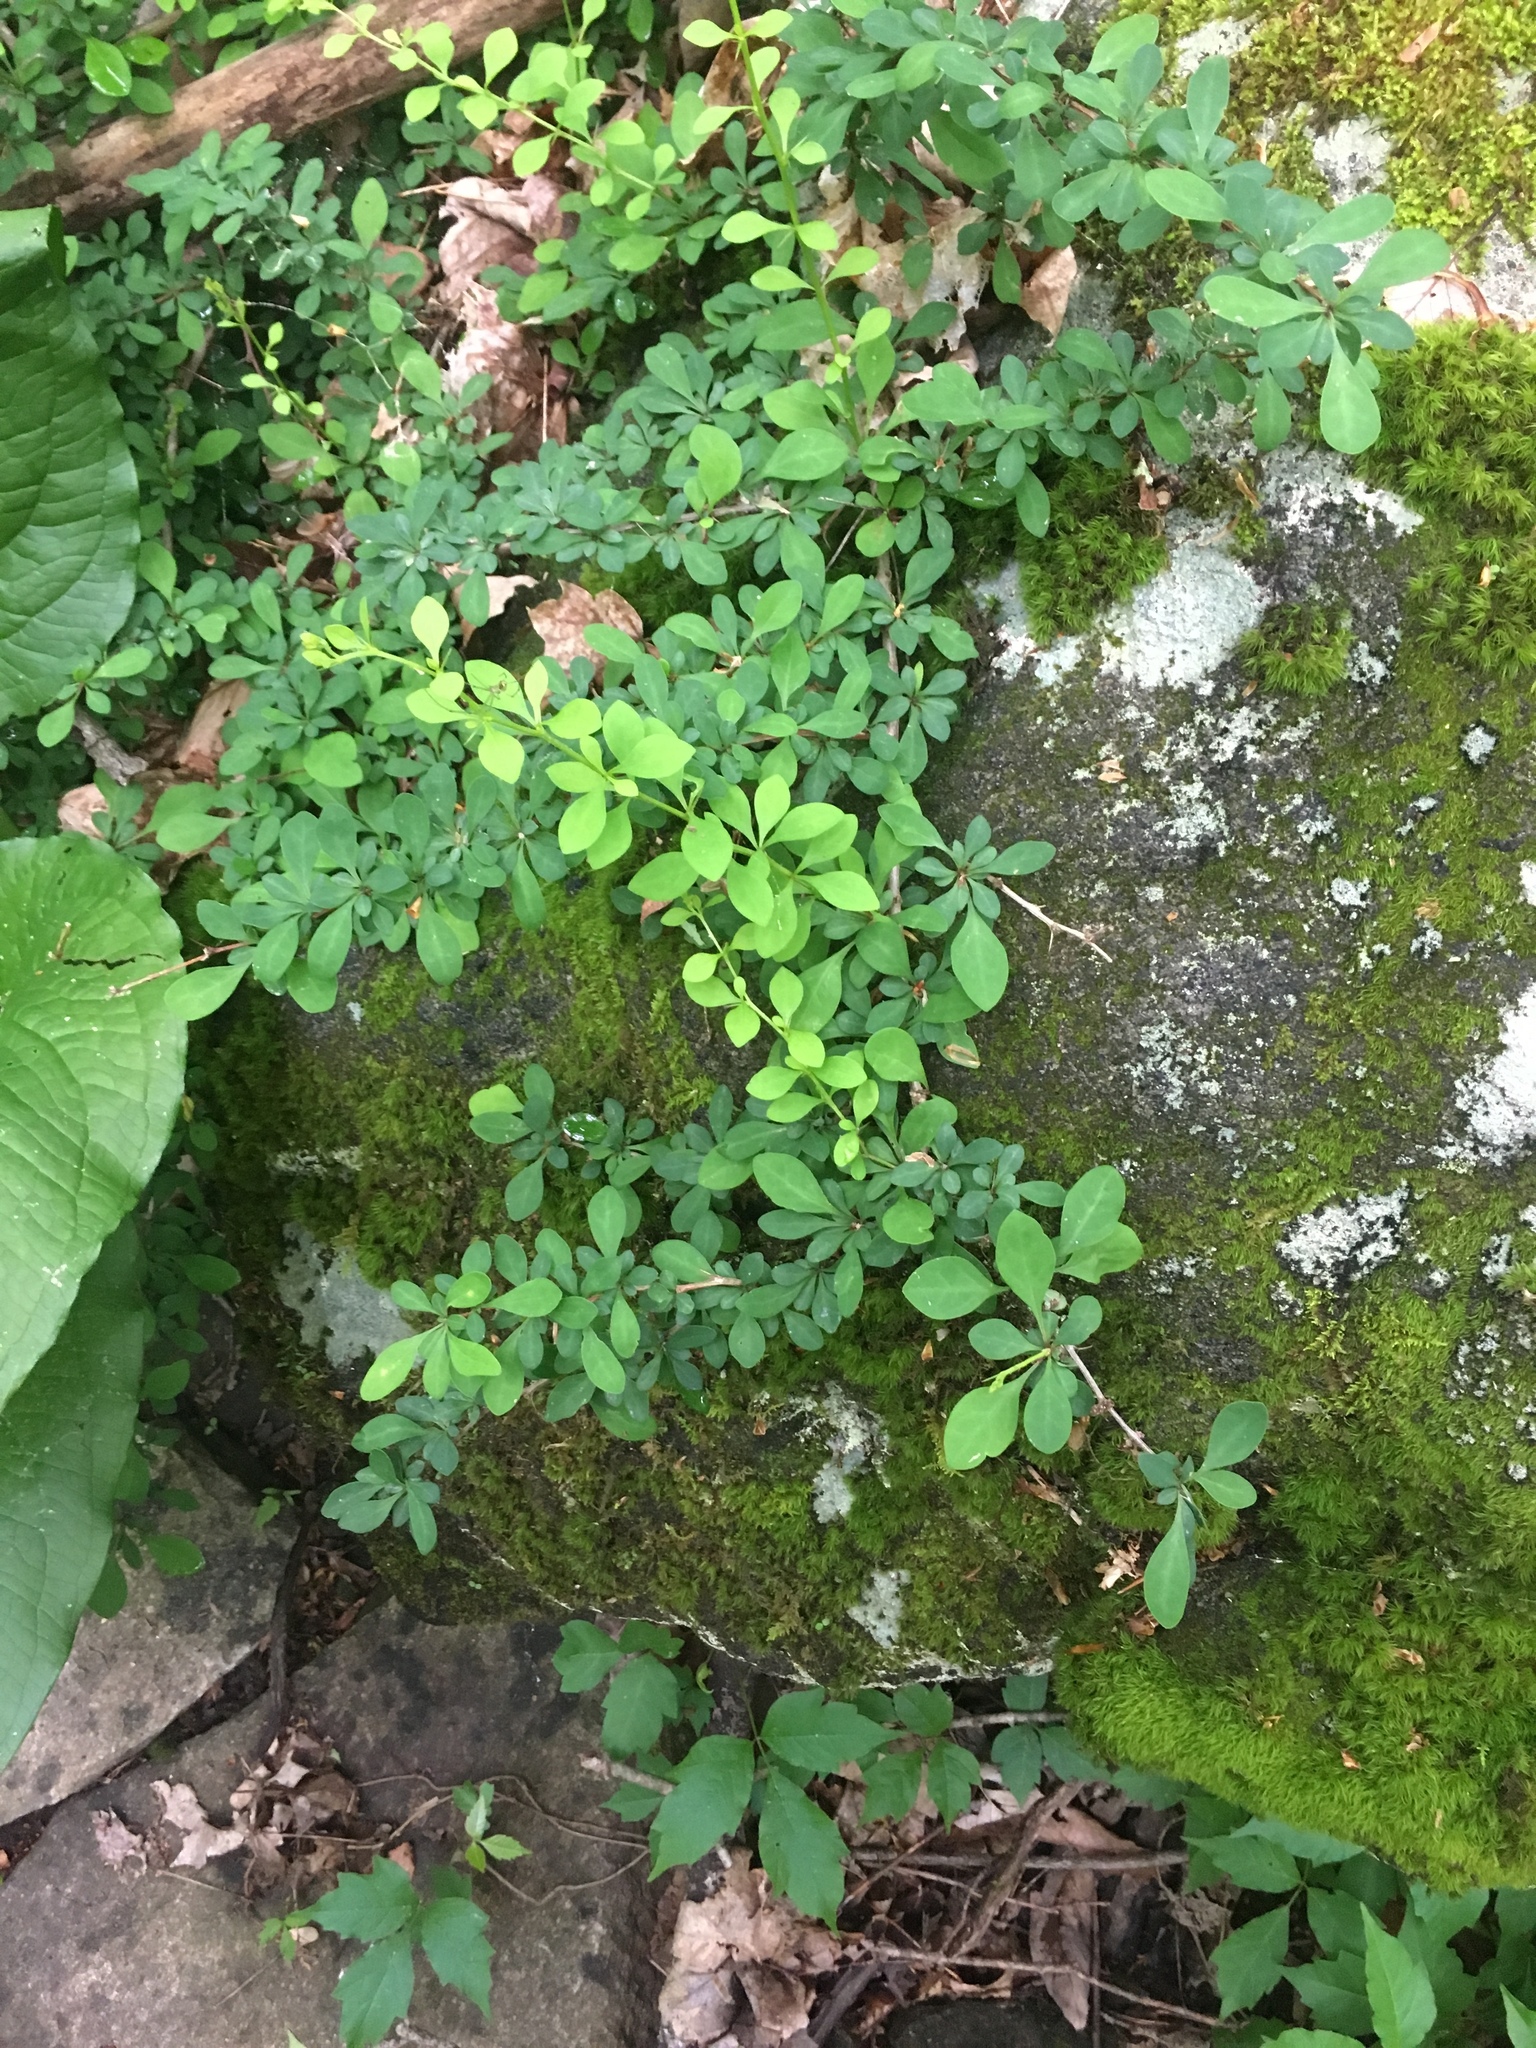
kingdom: Plantae
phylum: Tracheophyta
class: Magnoliopsida
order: Ranunculales
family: Berberidaceae
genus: Berberis
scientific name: Berberis thunbergii
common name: Japanese barberry
